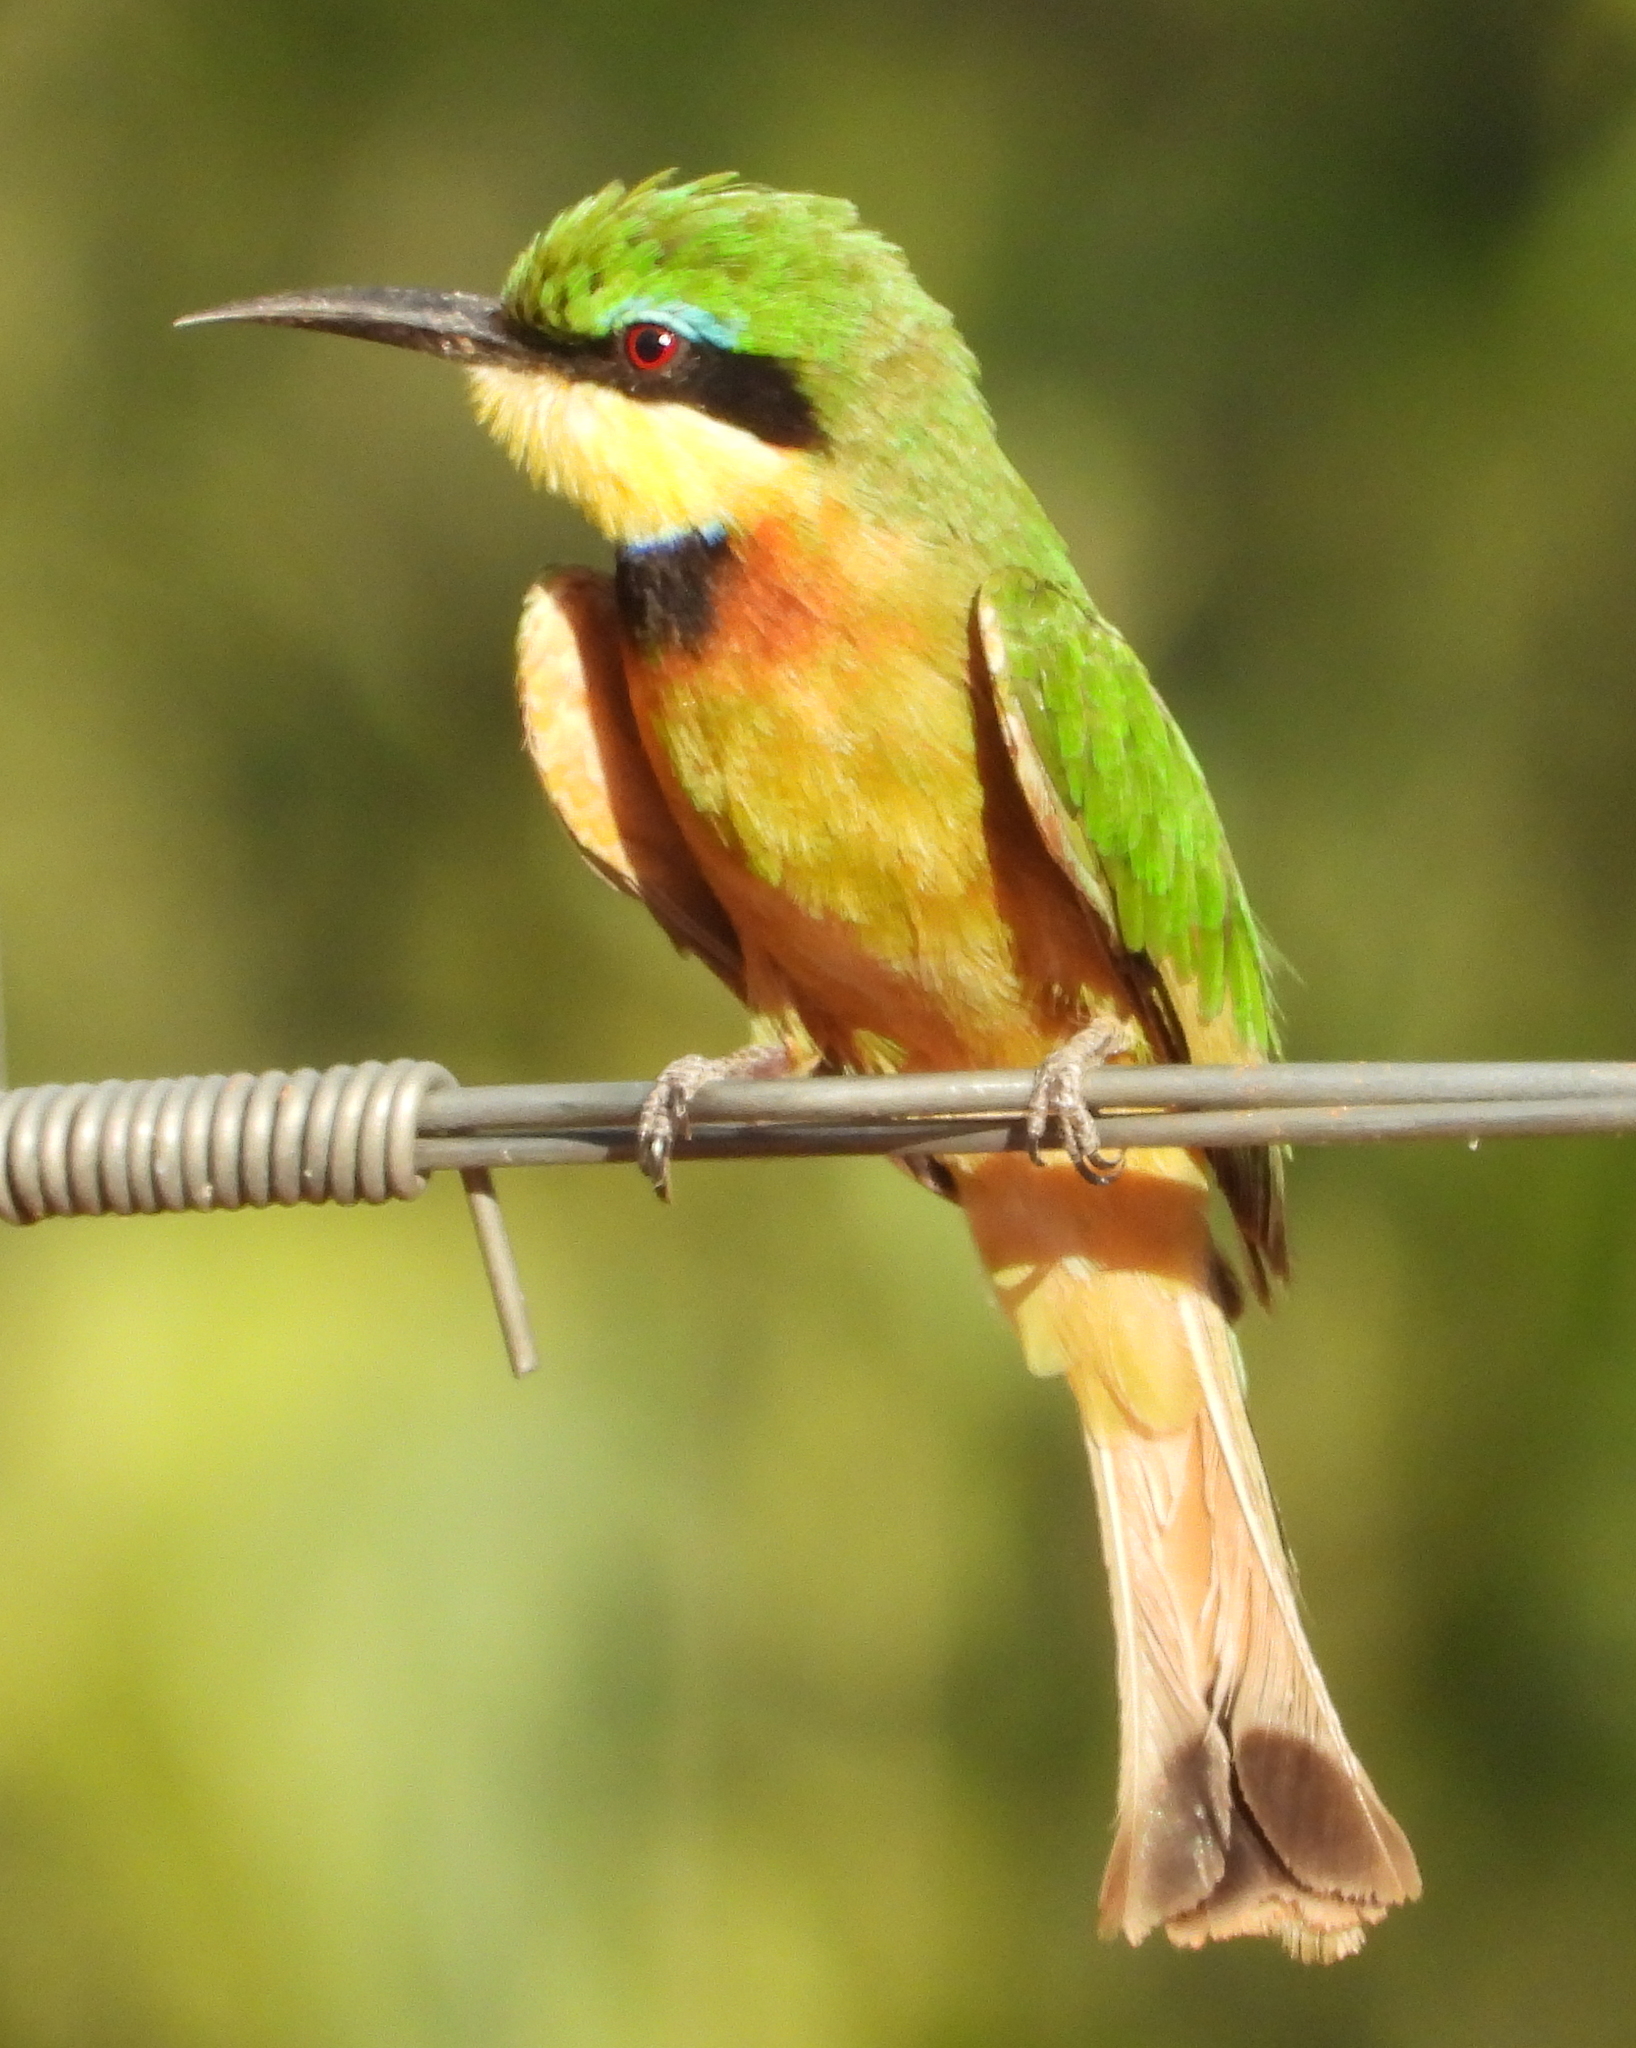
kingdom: Animalia
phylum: Chordata
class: Aves
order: Coraciiformes
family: Meropidae
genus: Merops
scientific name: Merops pusillus
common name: Little bee-eater
